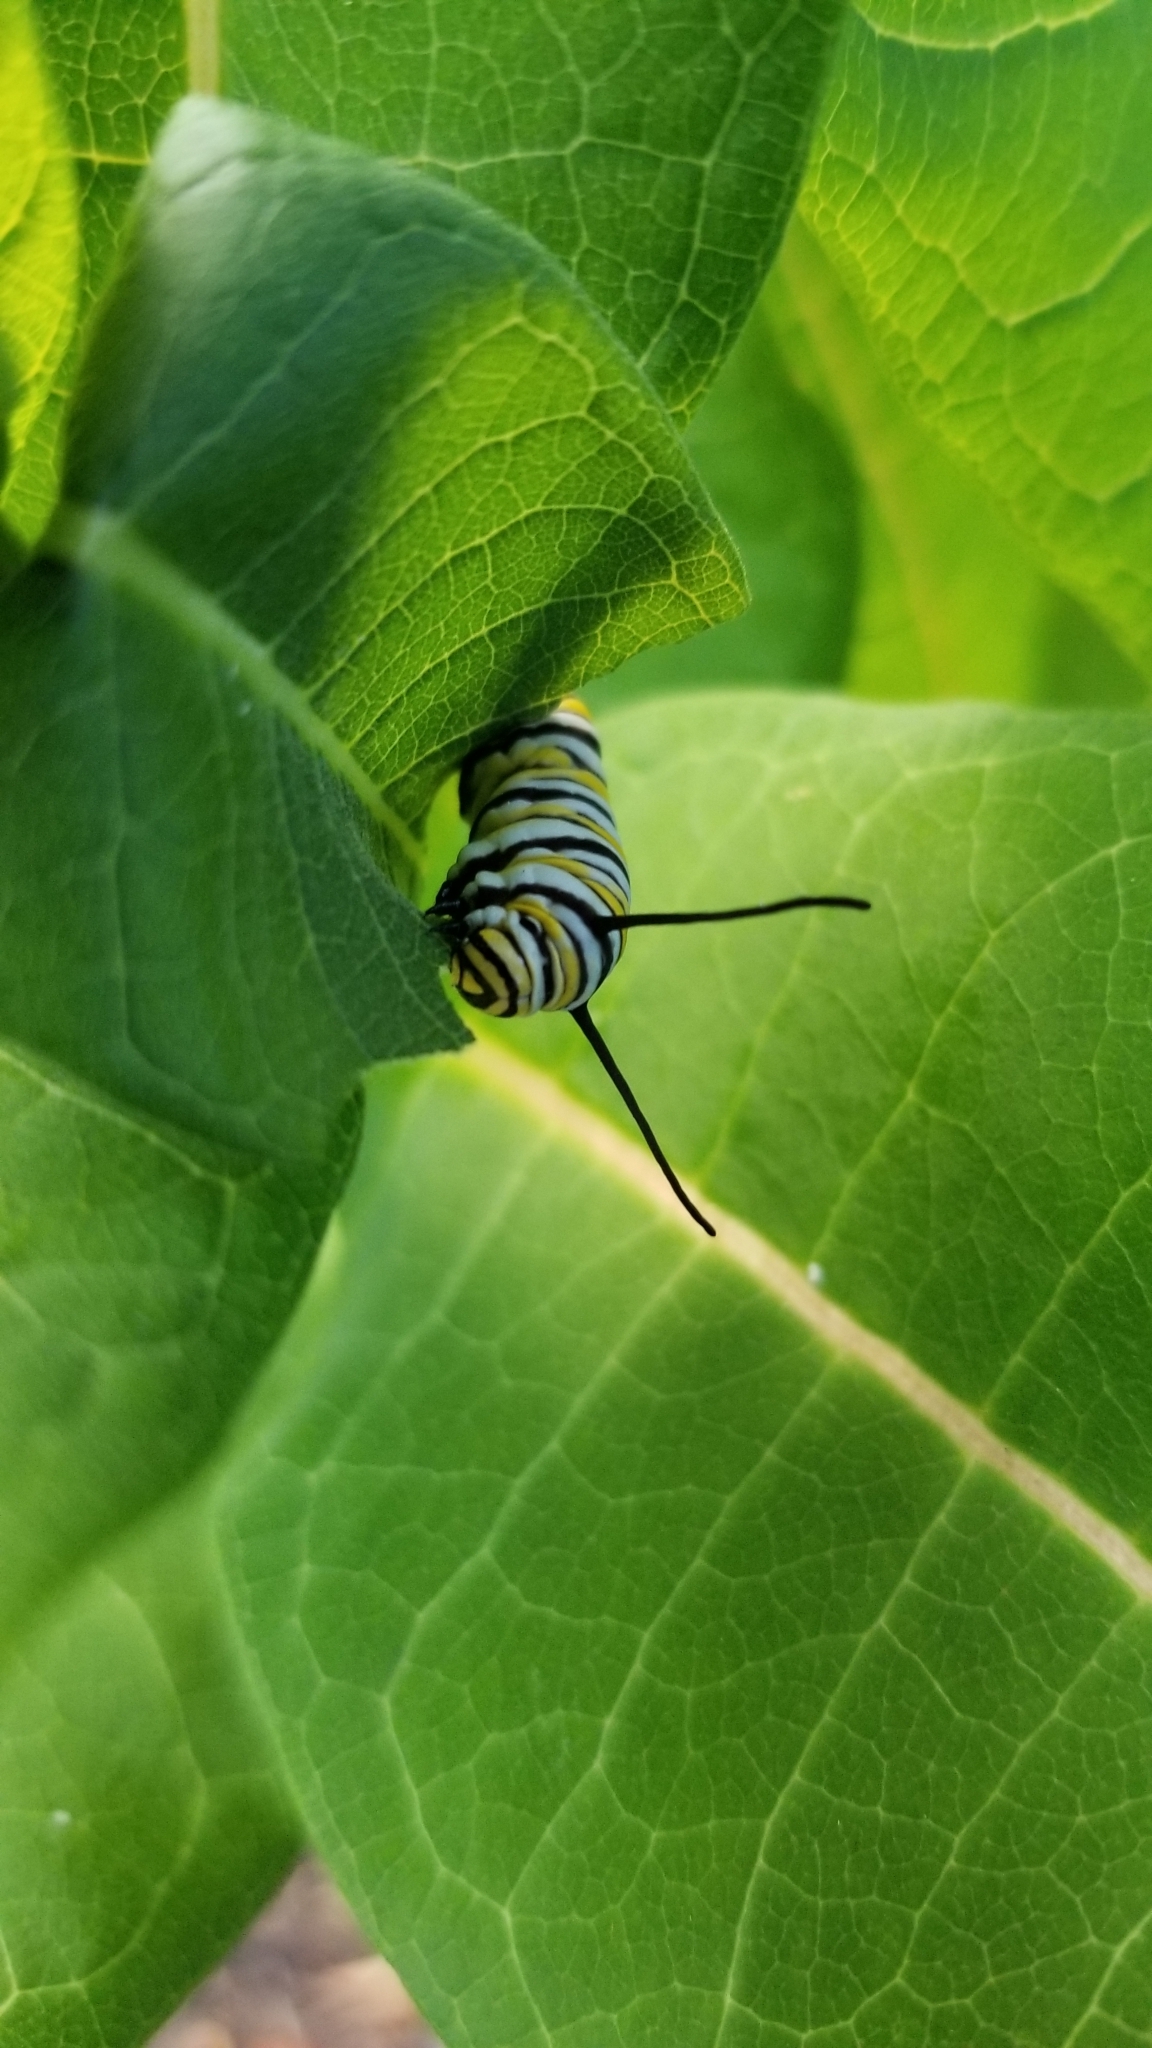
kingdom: Animalia
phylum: Arthropoda
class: Insecta
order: Lepidoptera
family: Nymphalidae
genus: Danaus
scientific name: Danaus plexippus
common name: Monarch
